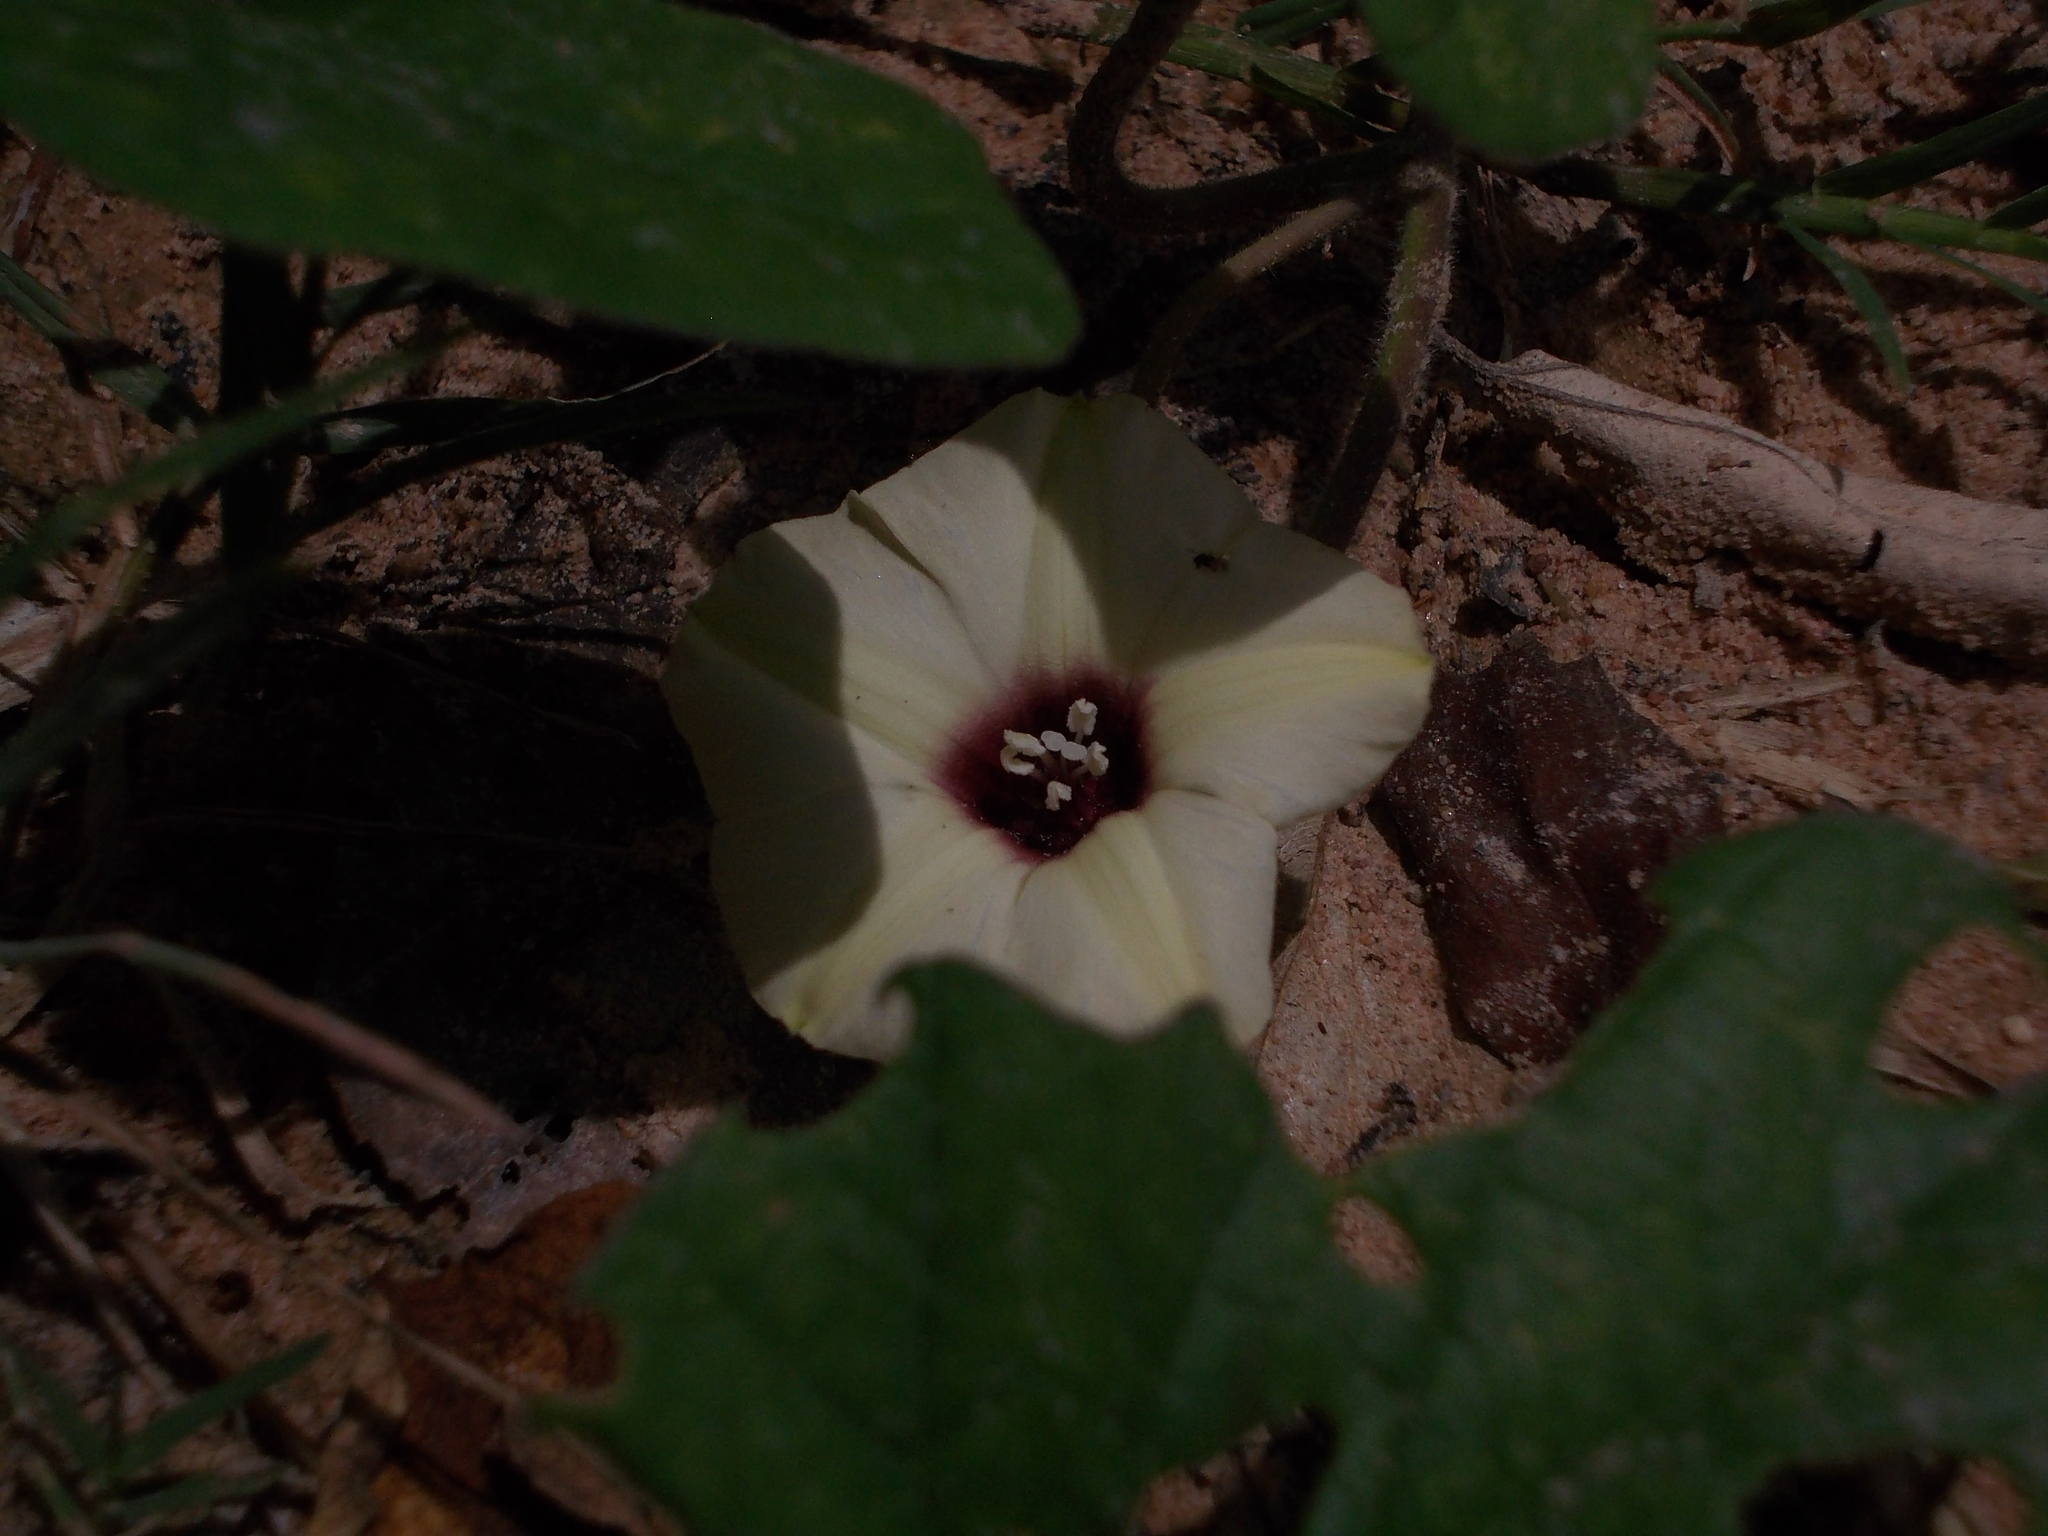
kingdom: Plantae
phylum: Tracheophyta
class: Magnoliopsida
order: Solanales
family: Convolvulaceae
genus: Hewittia
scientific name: Hewittia malabarica
